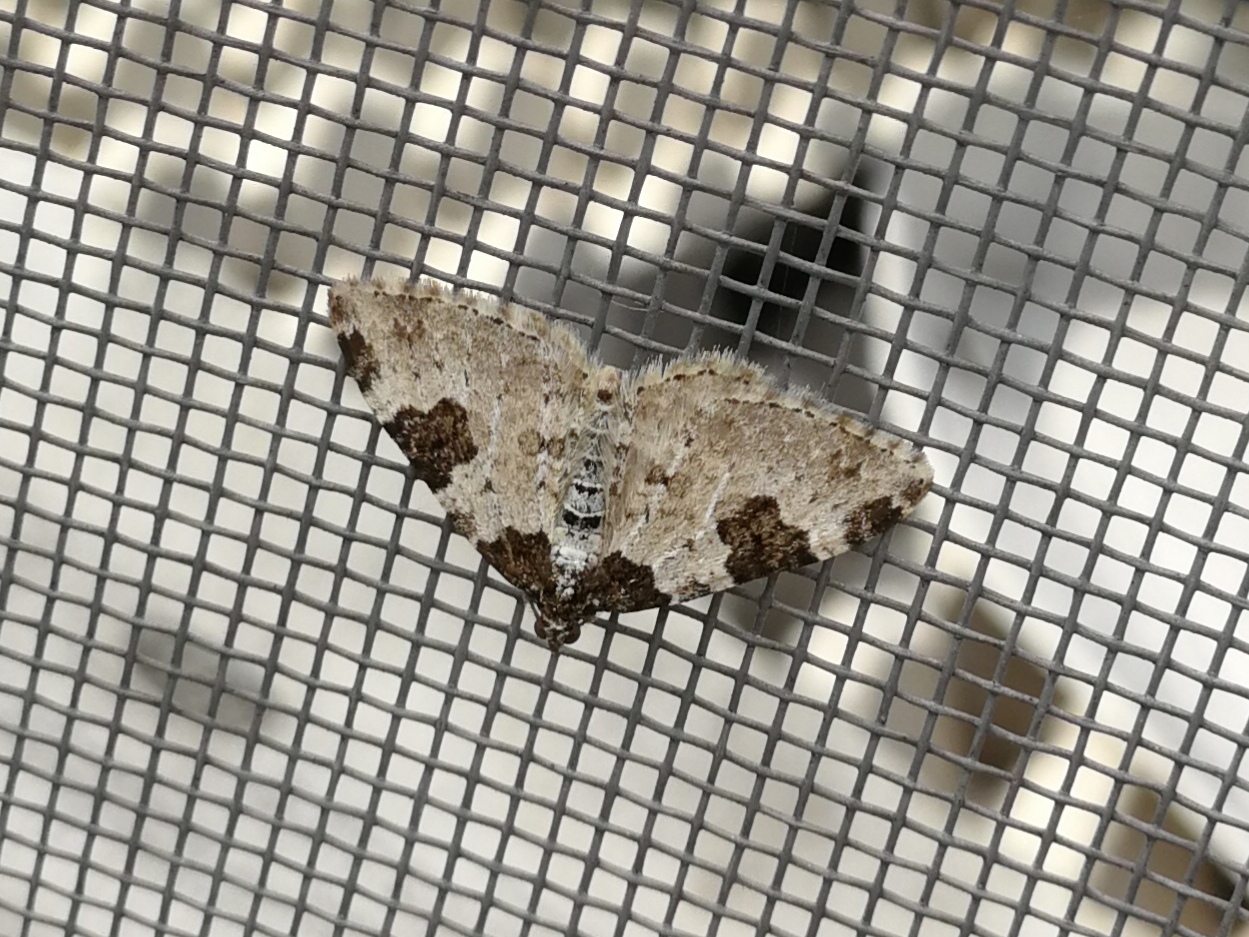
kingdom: Animalia
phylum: Arthropoda
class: Insecta
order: Lepidoptera
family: Geometridae
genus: Xanthorhoe
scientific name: Xanthorhoe fluctuata
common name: Garden carpet
